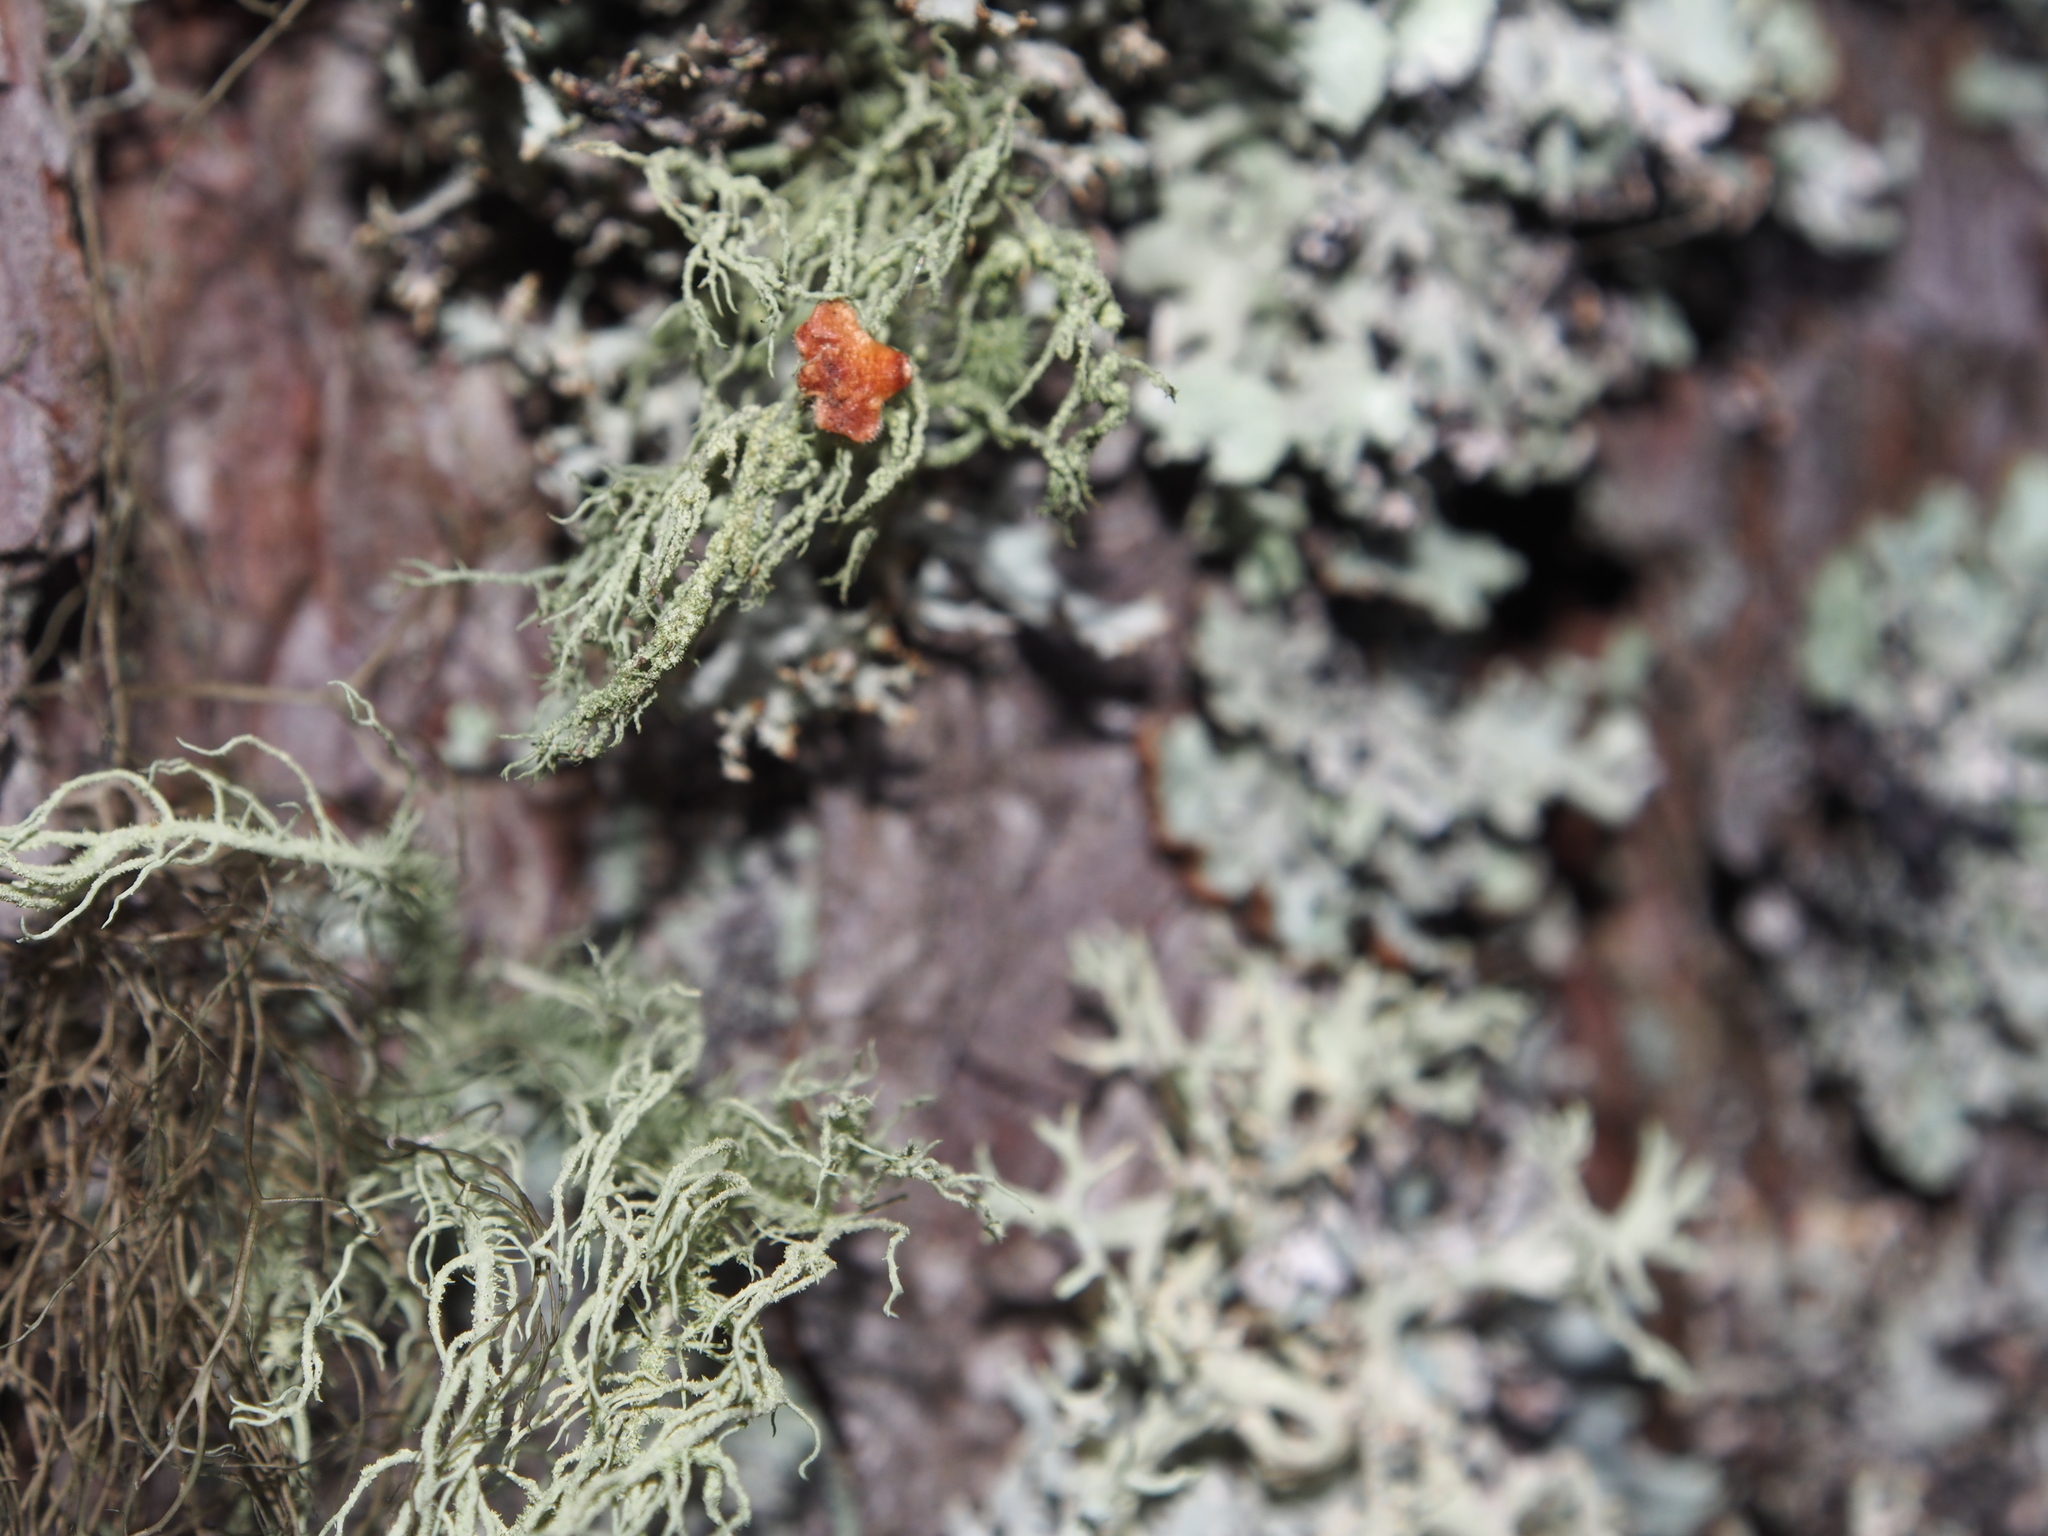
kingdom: Fungi
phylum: Ascomycota
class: Lecanoromycetes
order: Lecanorales
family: Parmeliaceae
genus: Usnea
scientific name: Usnea hirta
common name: Bristly beard lichen
